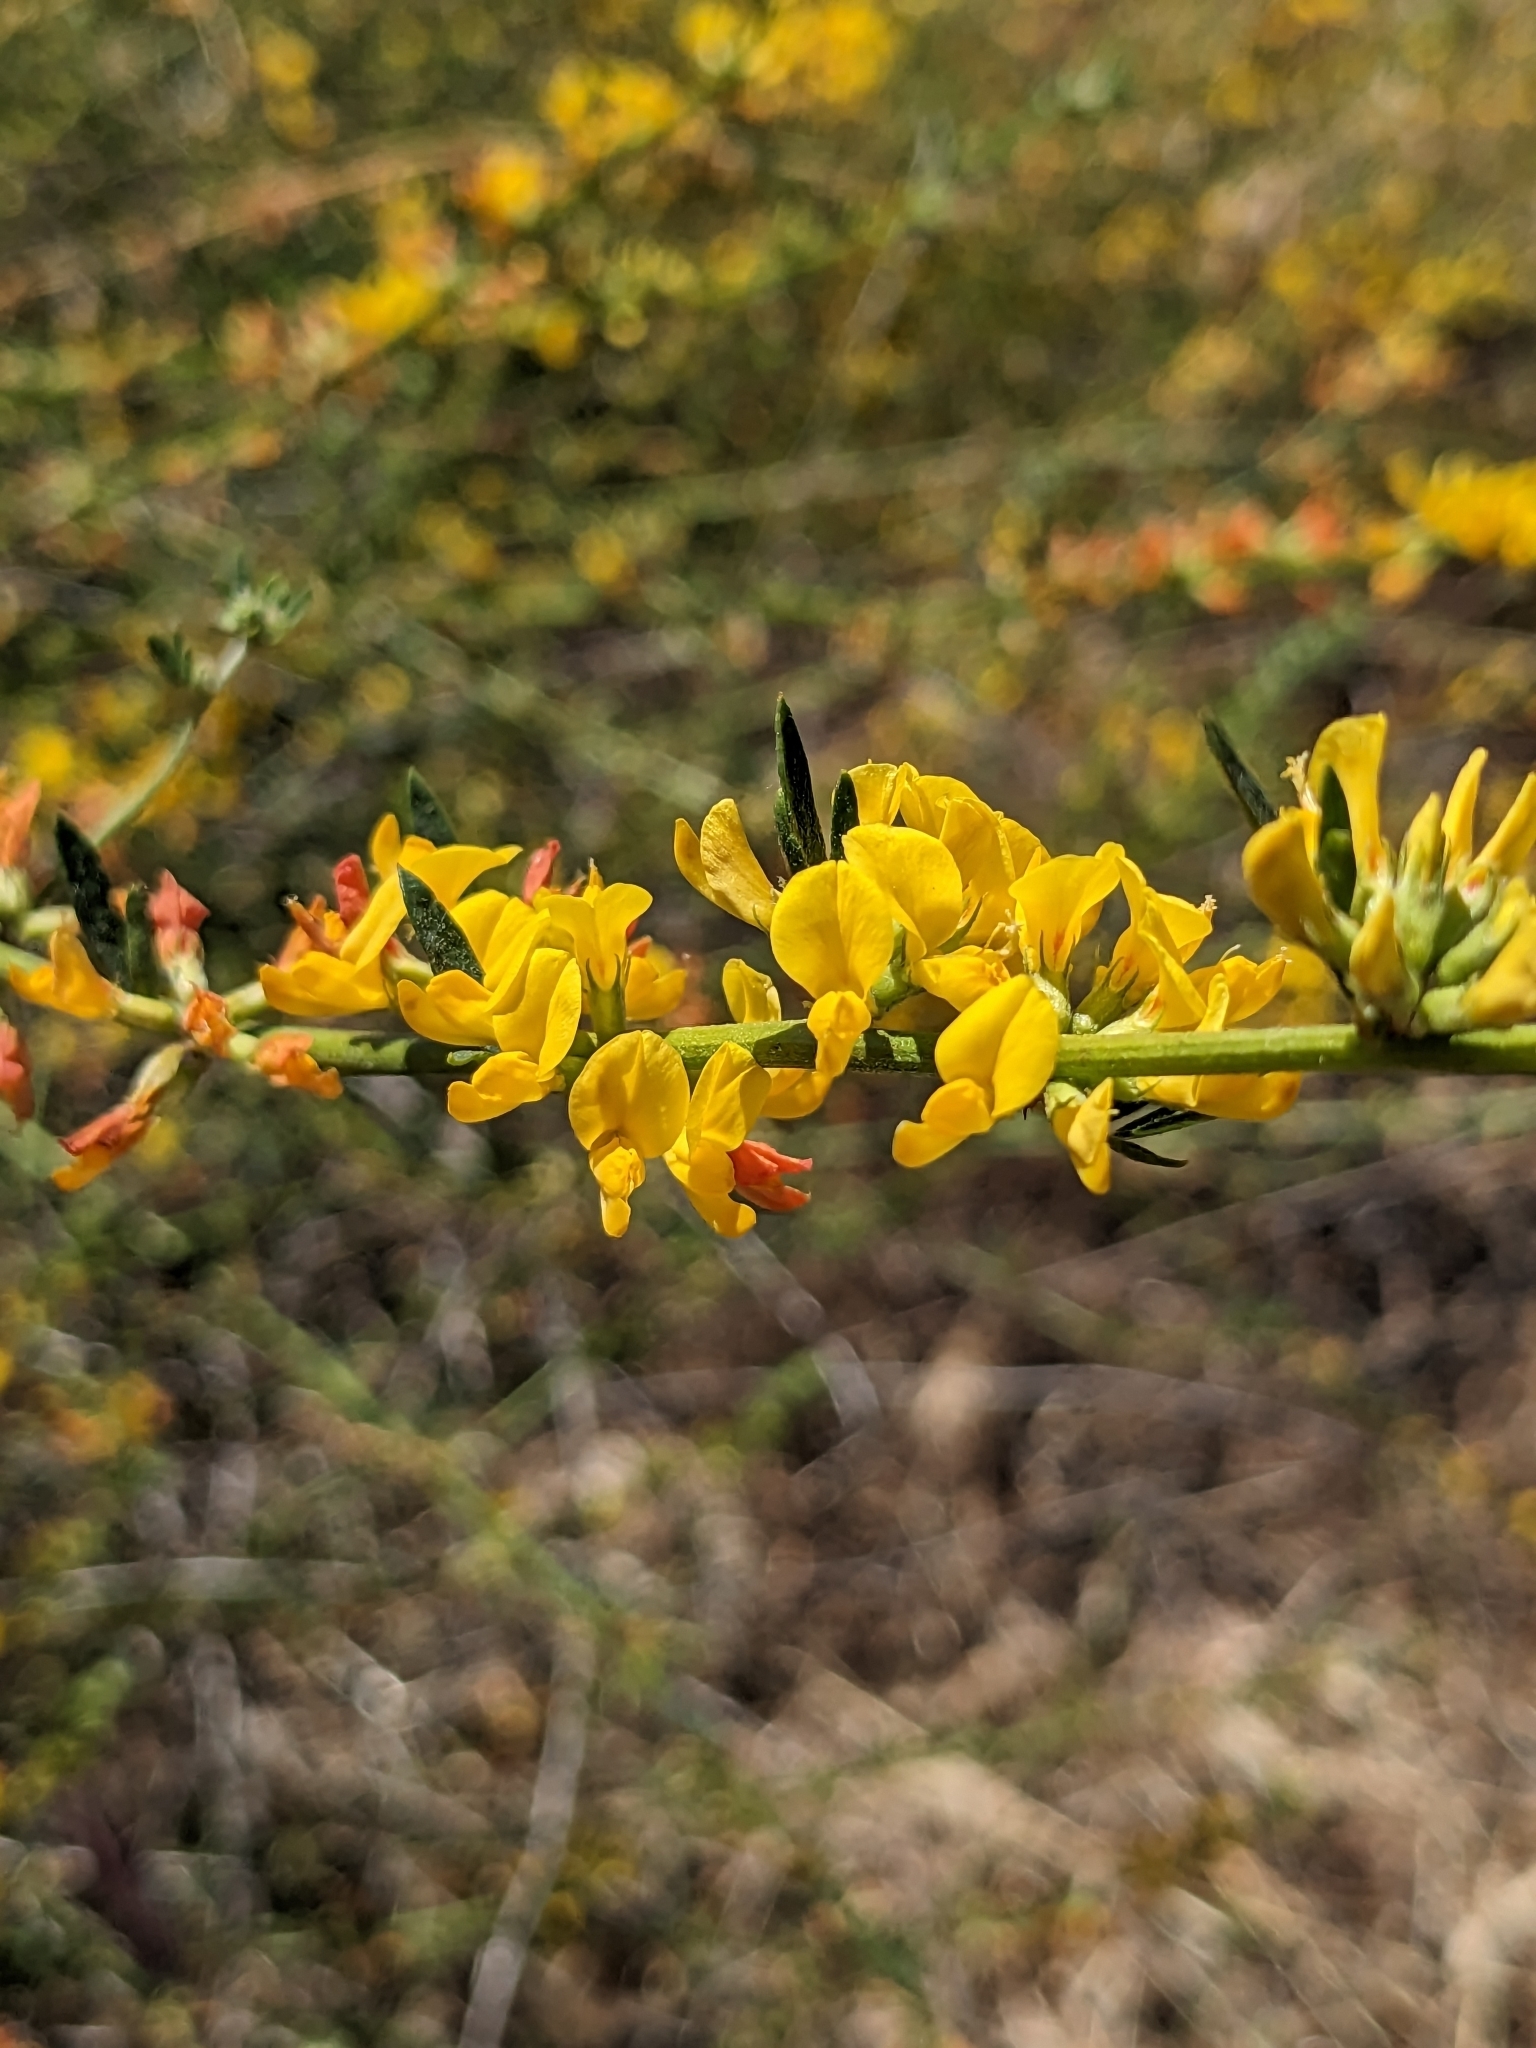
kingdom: Plantae
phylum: Tracheophyta
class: Magnoliopsida
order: Fabales
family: Fabaceae
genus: Acmispon
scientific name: Acmispon glaber
